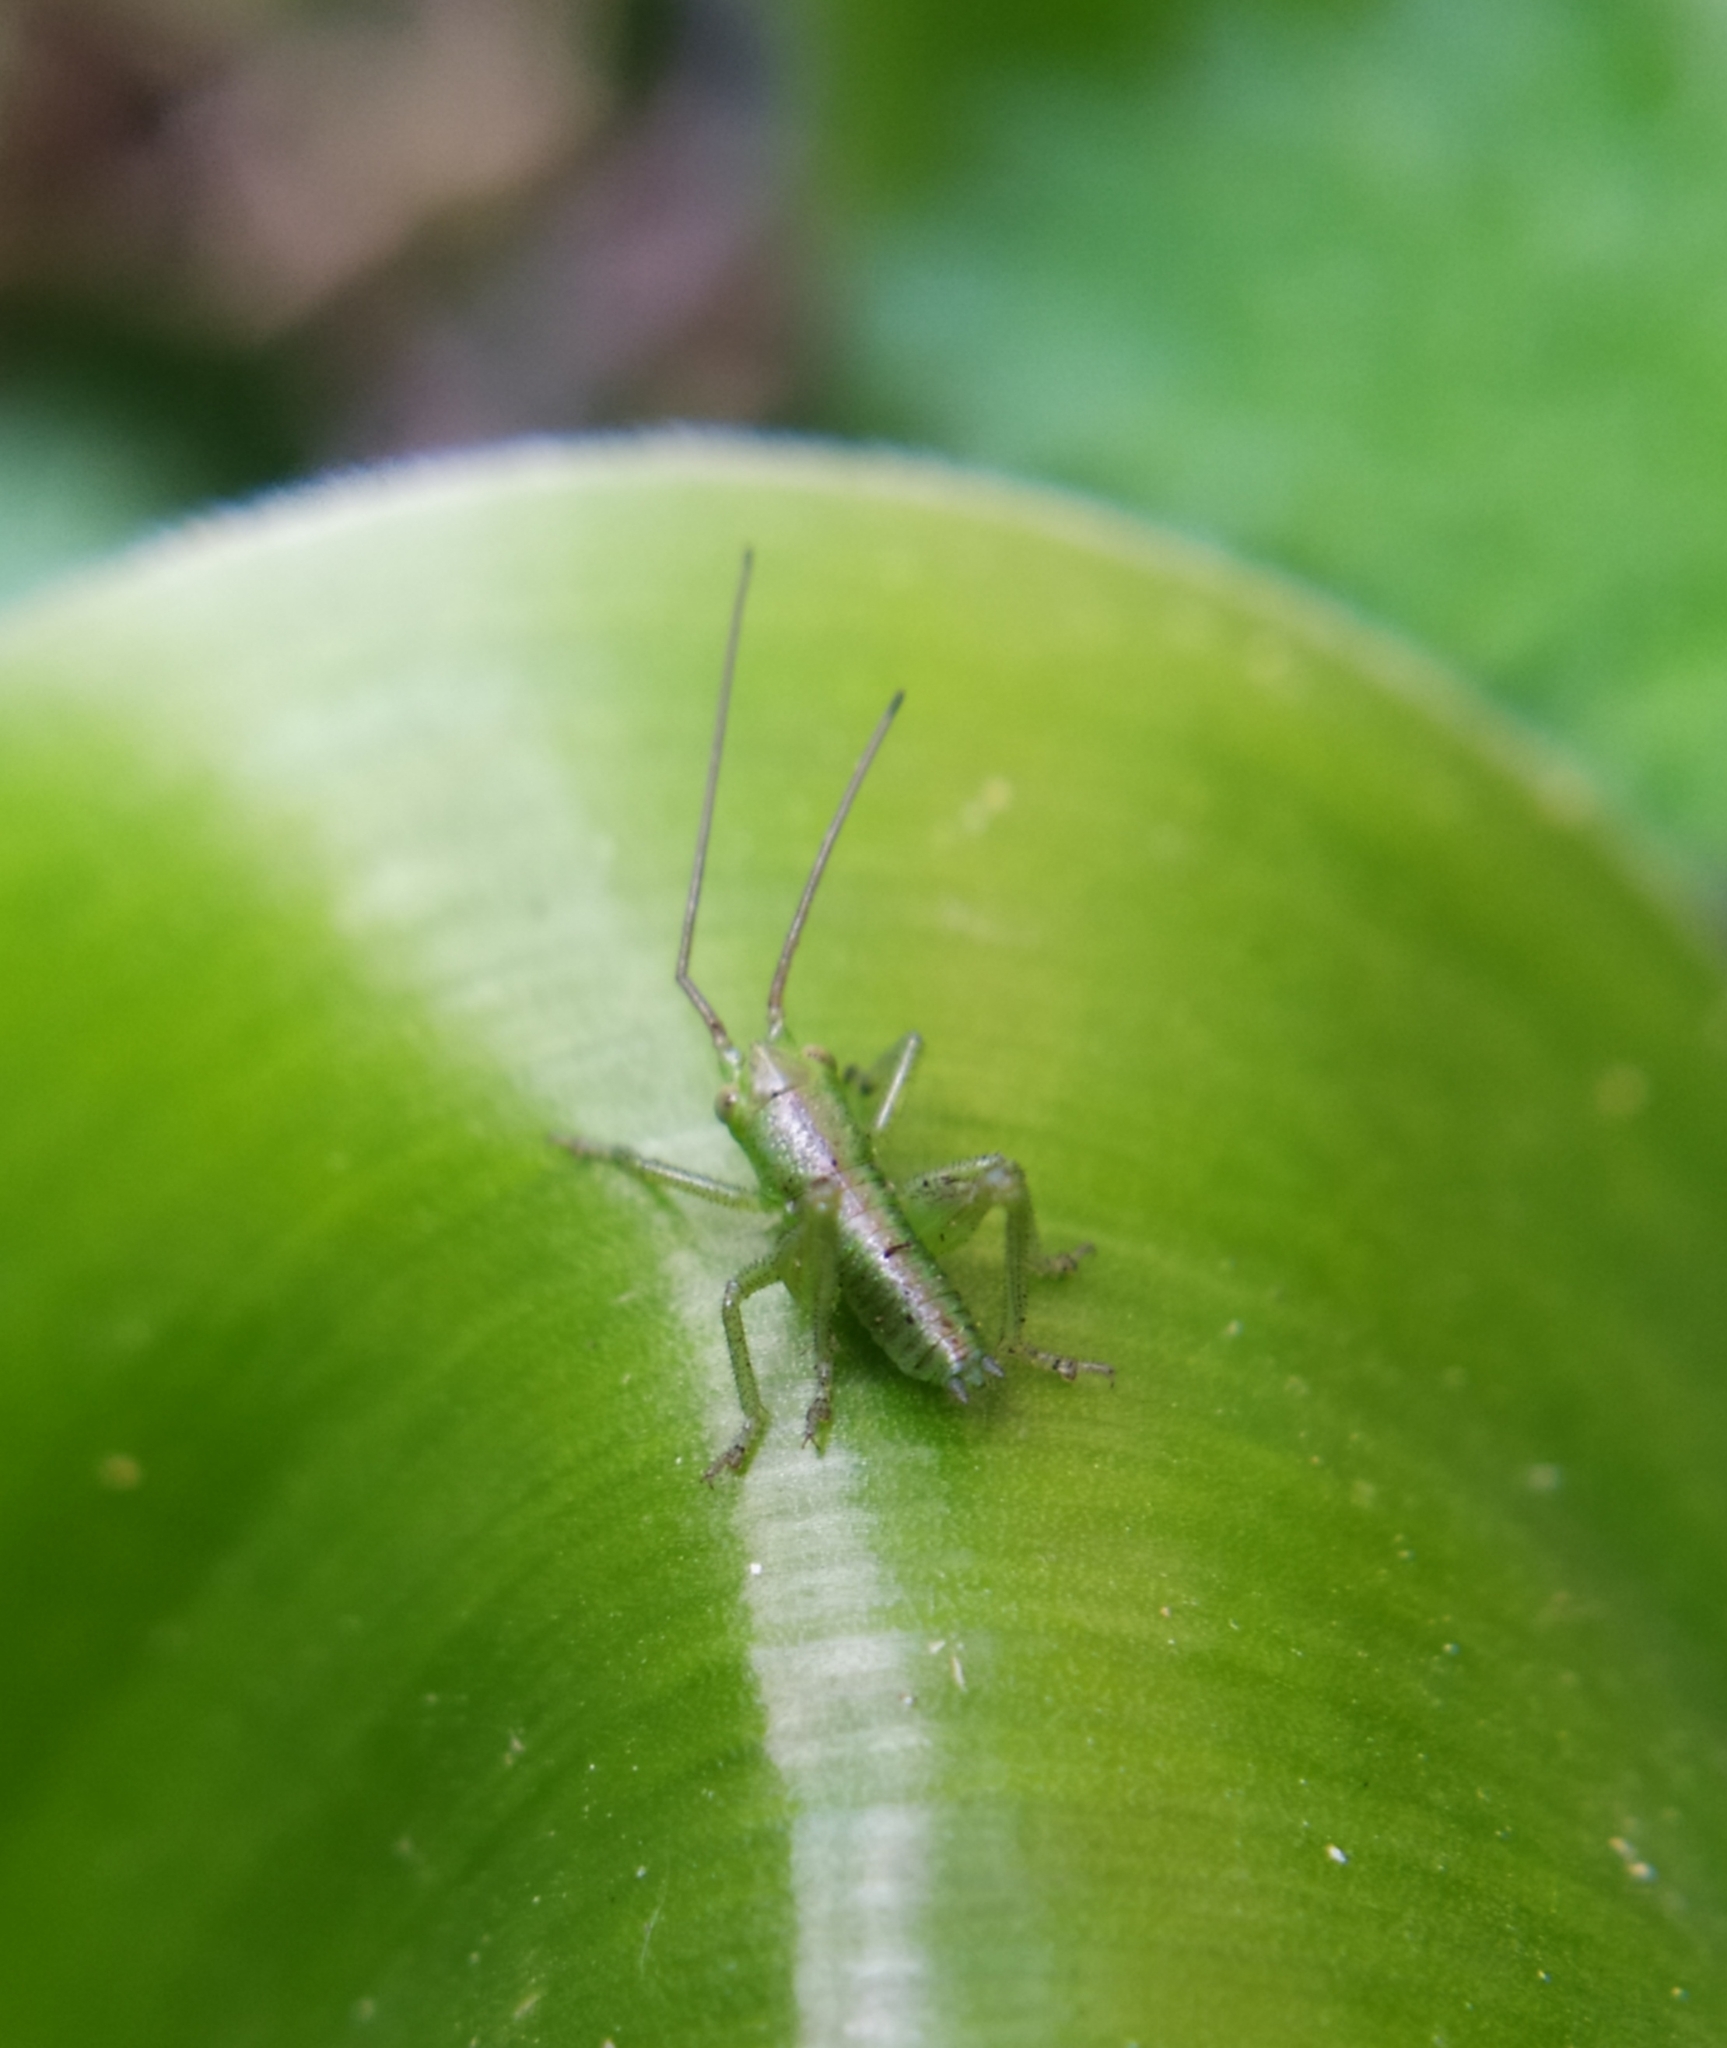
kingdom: Animalia
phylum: Arthropoda
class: Insecta
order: Orthoptera
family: Tettigoniidae
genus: Tettigonia
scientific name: Tettigonia viridissima
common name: Great green bush-cricket
